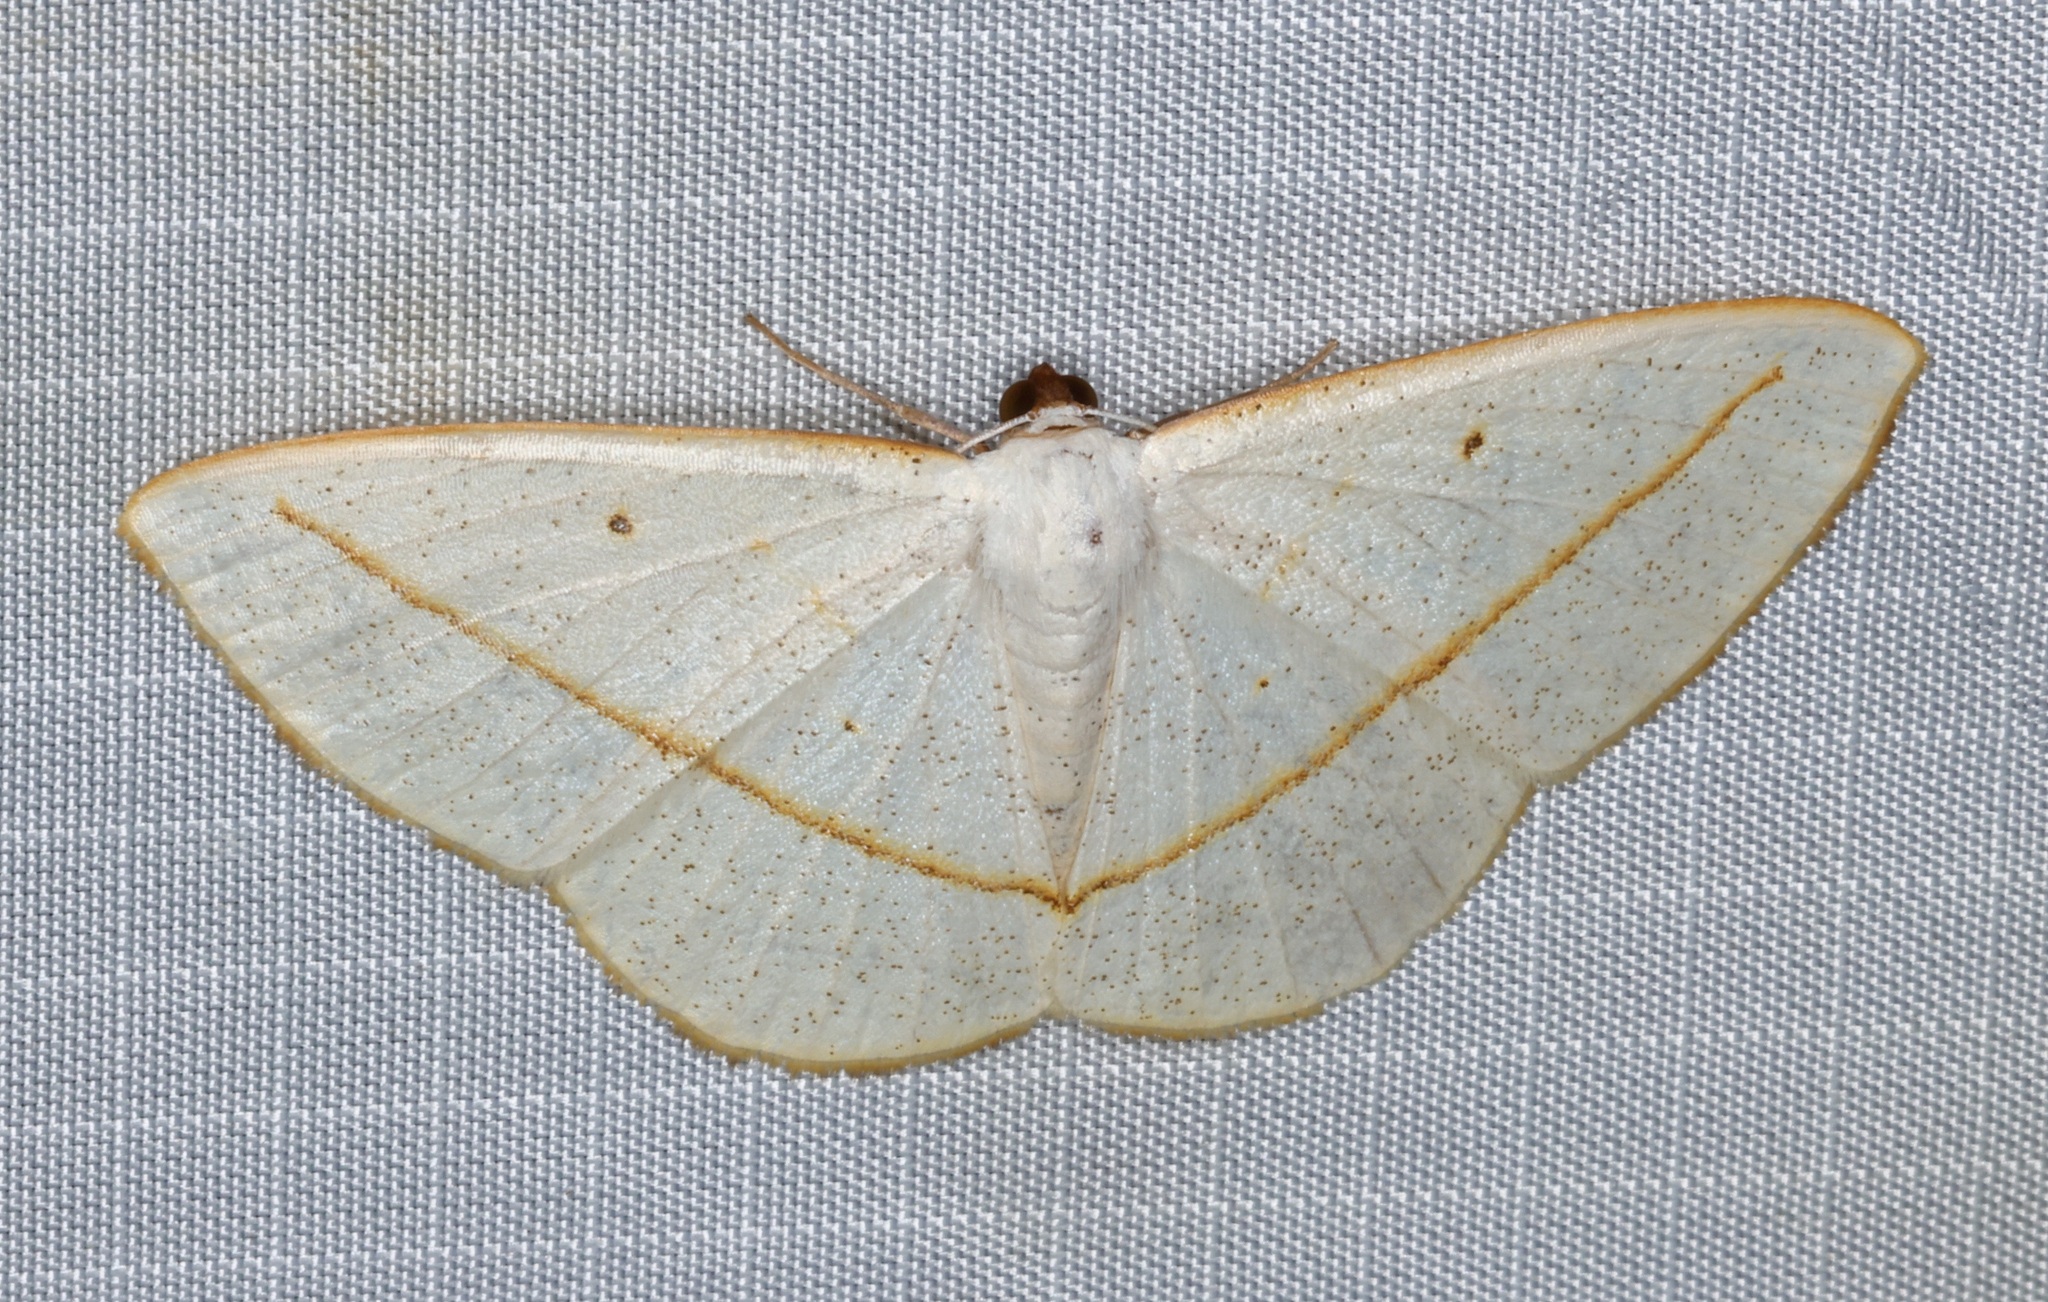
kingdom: Animalia
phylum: Arthropoda
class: Insecta
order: Lepidoptera
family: Geometridae
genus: Lomographa
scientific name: Lomographa inamata
